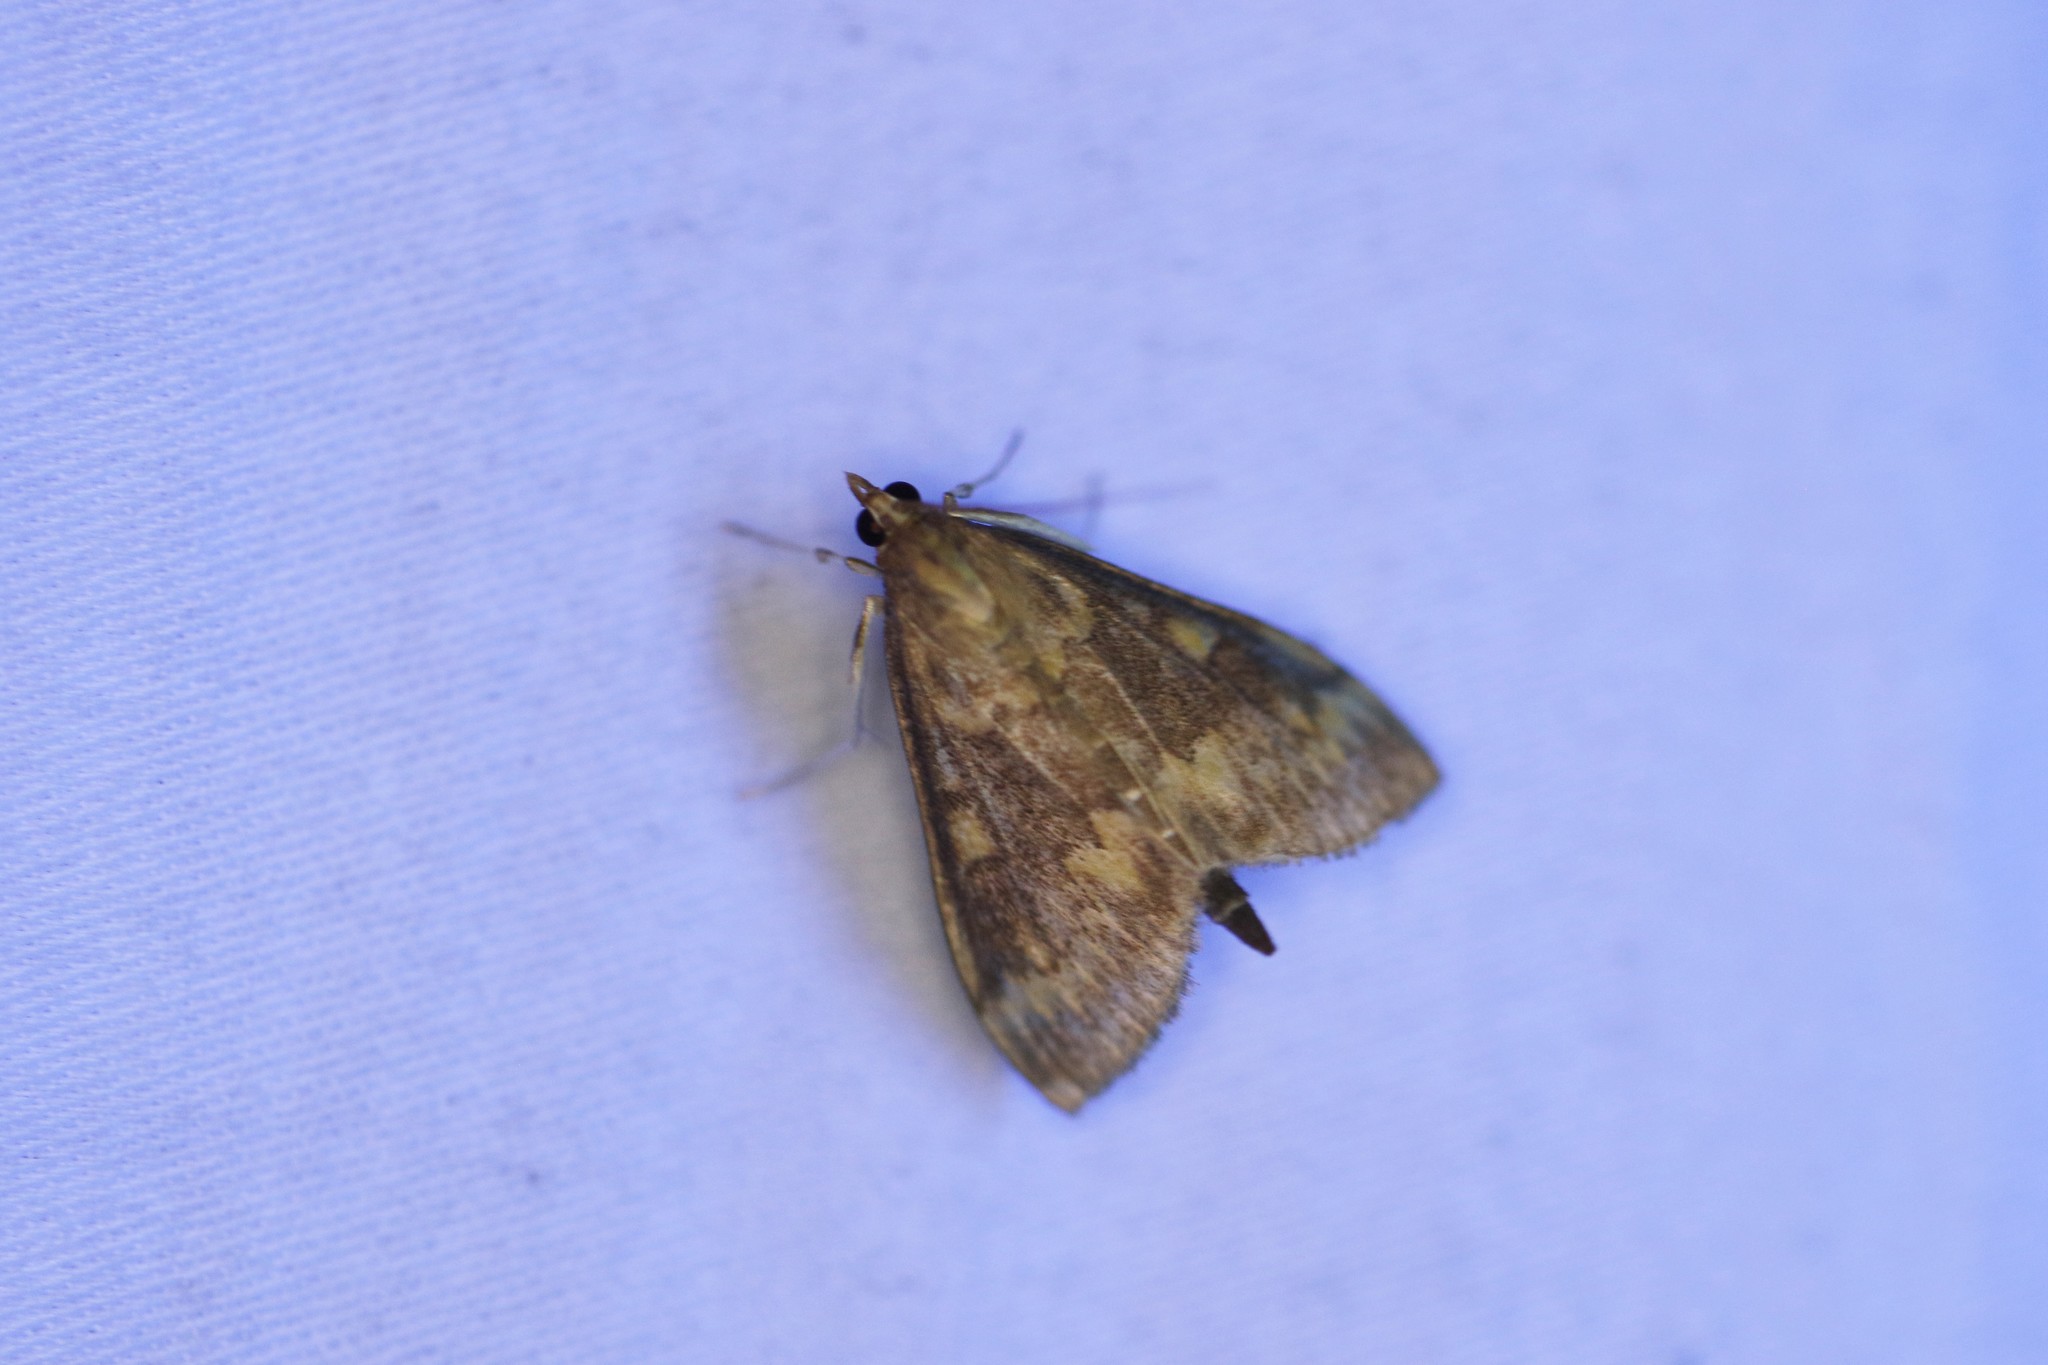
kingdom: Animalia
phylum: Arthropoda
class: Insecta
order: Lepidoptera
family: Crambidae
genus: Ostrinia
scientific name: Ostrinia nubilalis
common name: European corn borer
